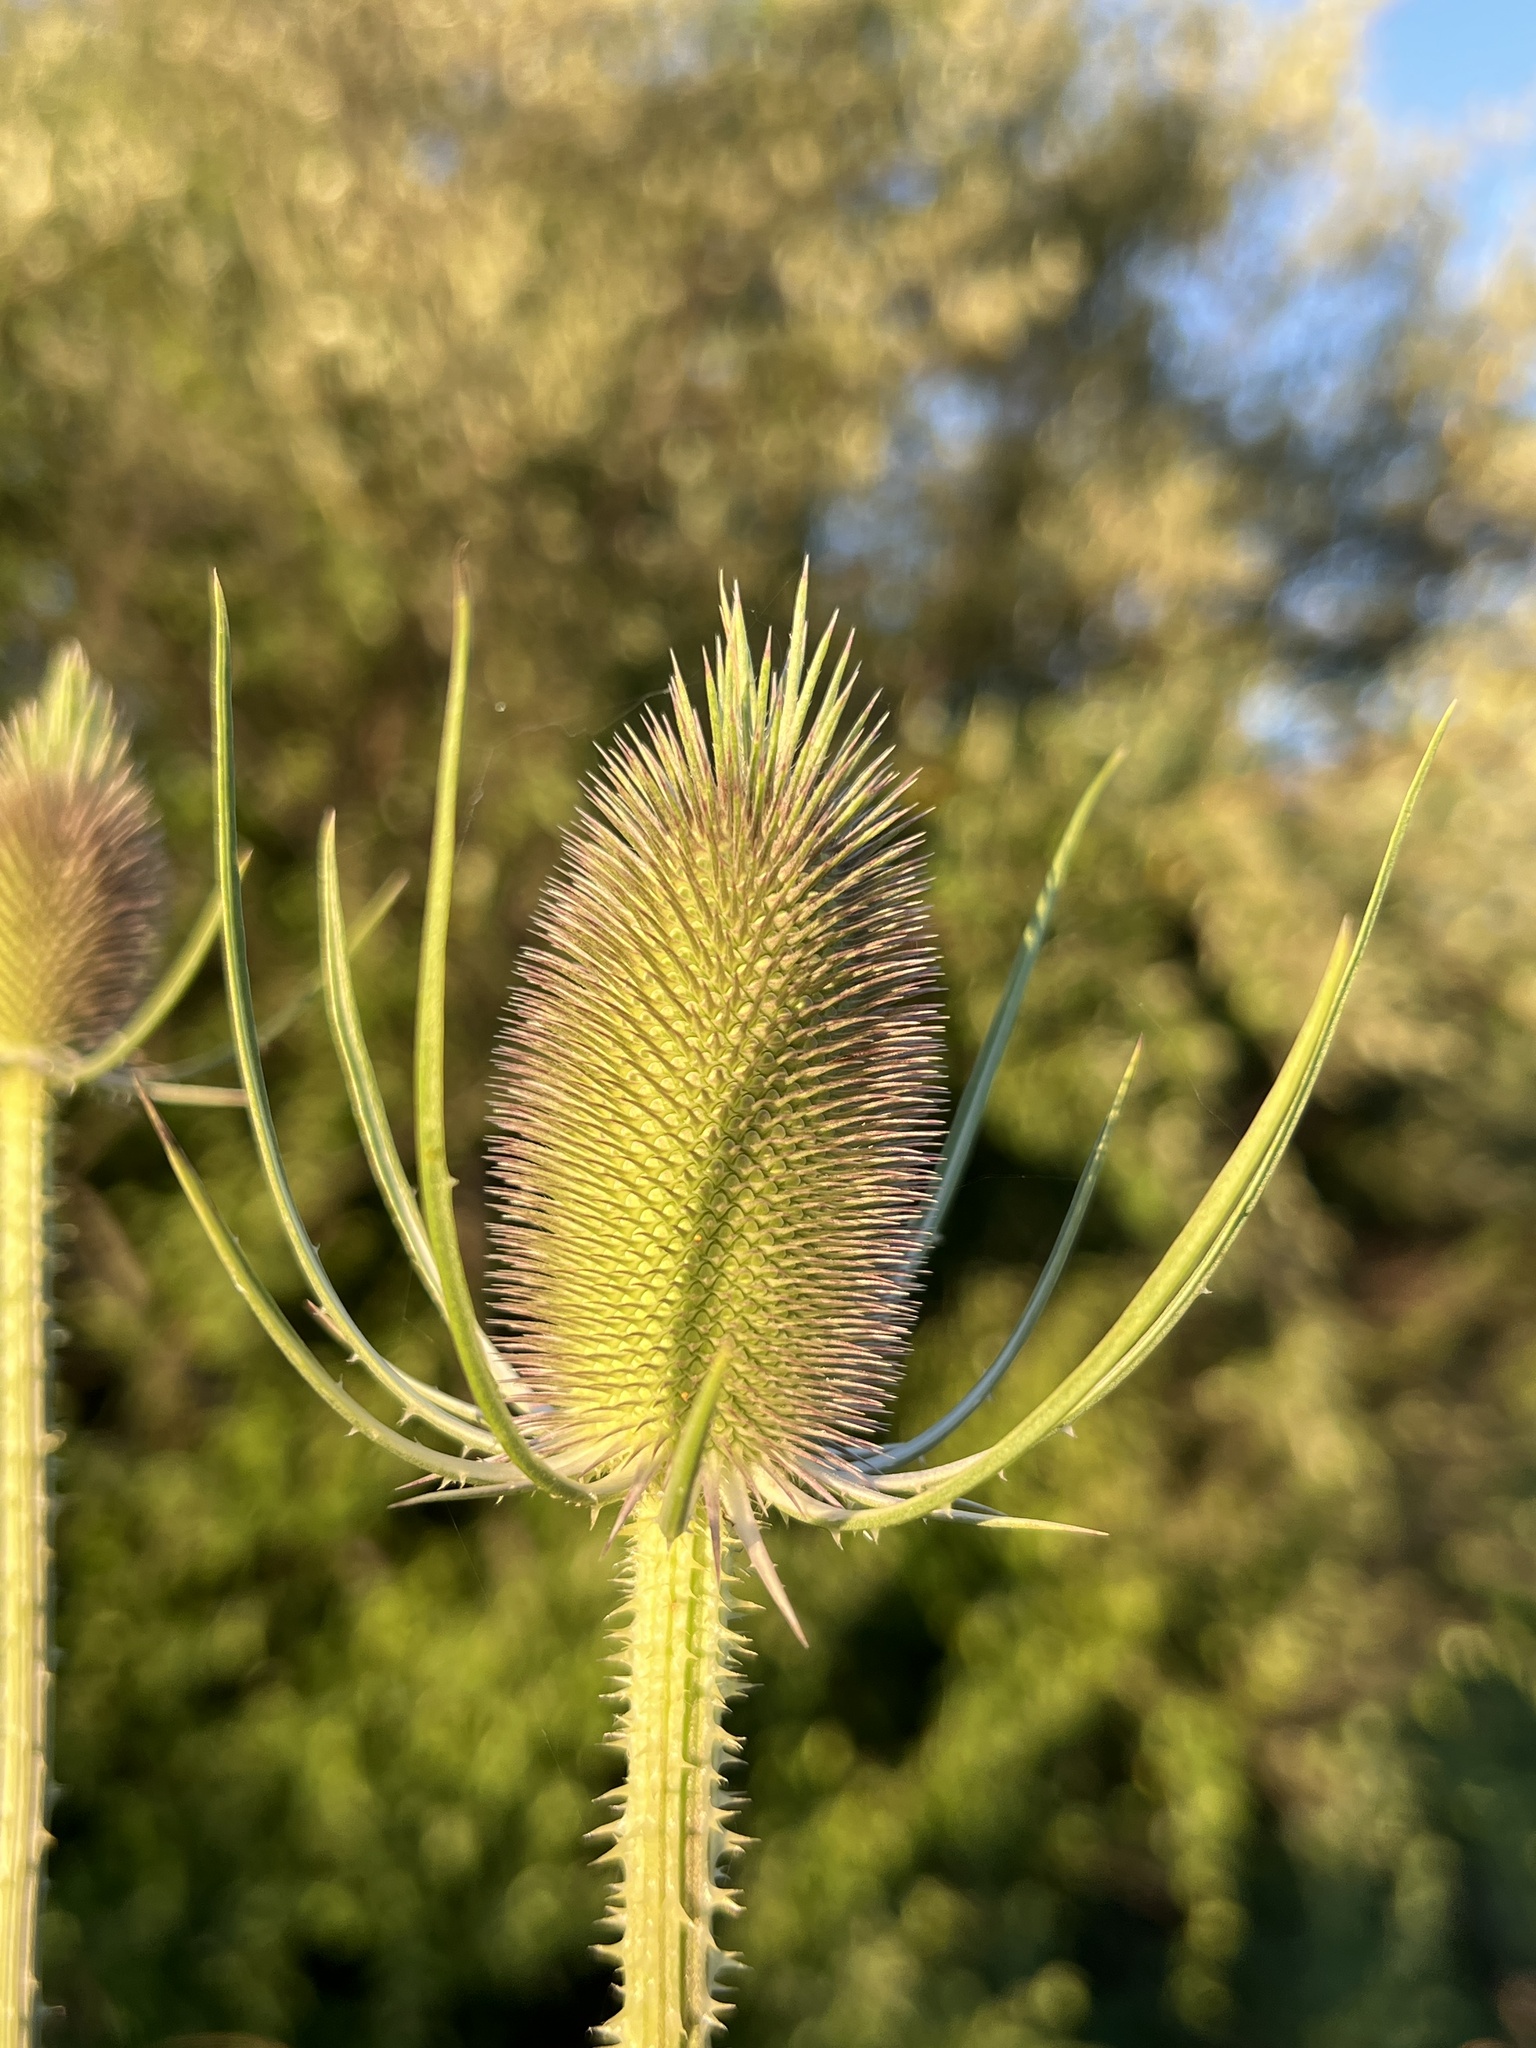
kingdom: Plantae
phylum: Tracheophyta
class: Magnoliopsida
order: Dipsacales
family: Caprifoliaceae
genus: Dipsacus
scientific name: Dipsacus fullonum
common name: Teasel
